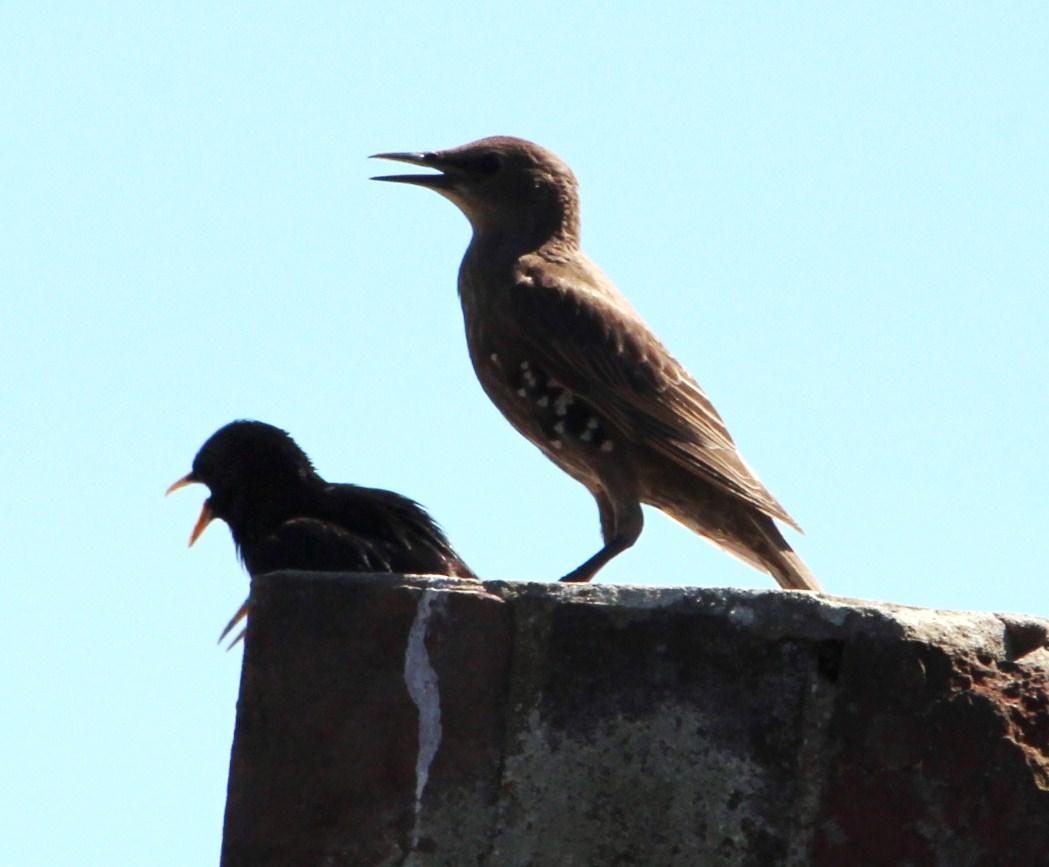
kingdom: Animalia
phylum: Chordata
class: Aves
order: Passeriformes
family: Sturnidae
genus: Sturnus
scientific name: Sturnus vulgaris
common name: Common starling
